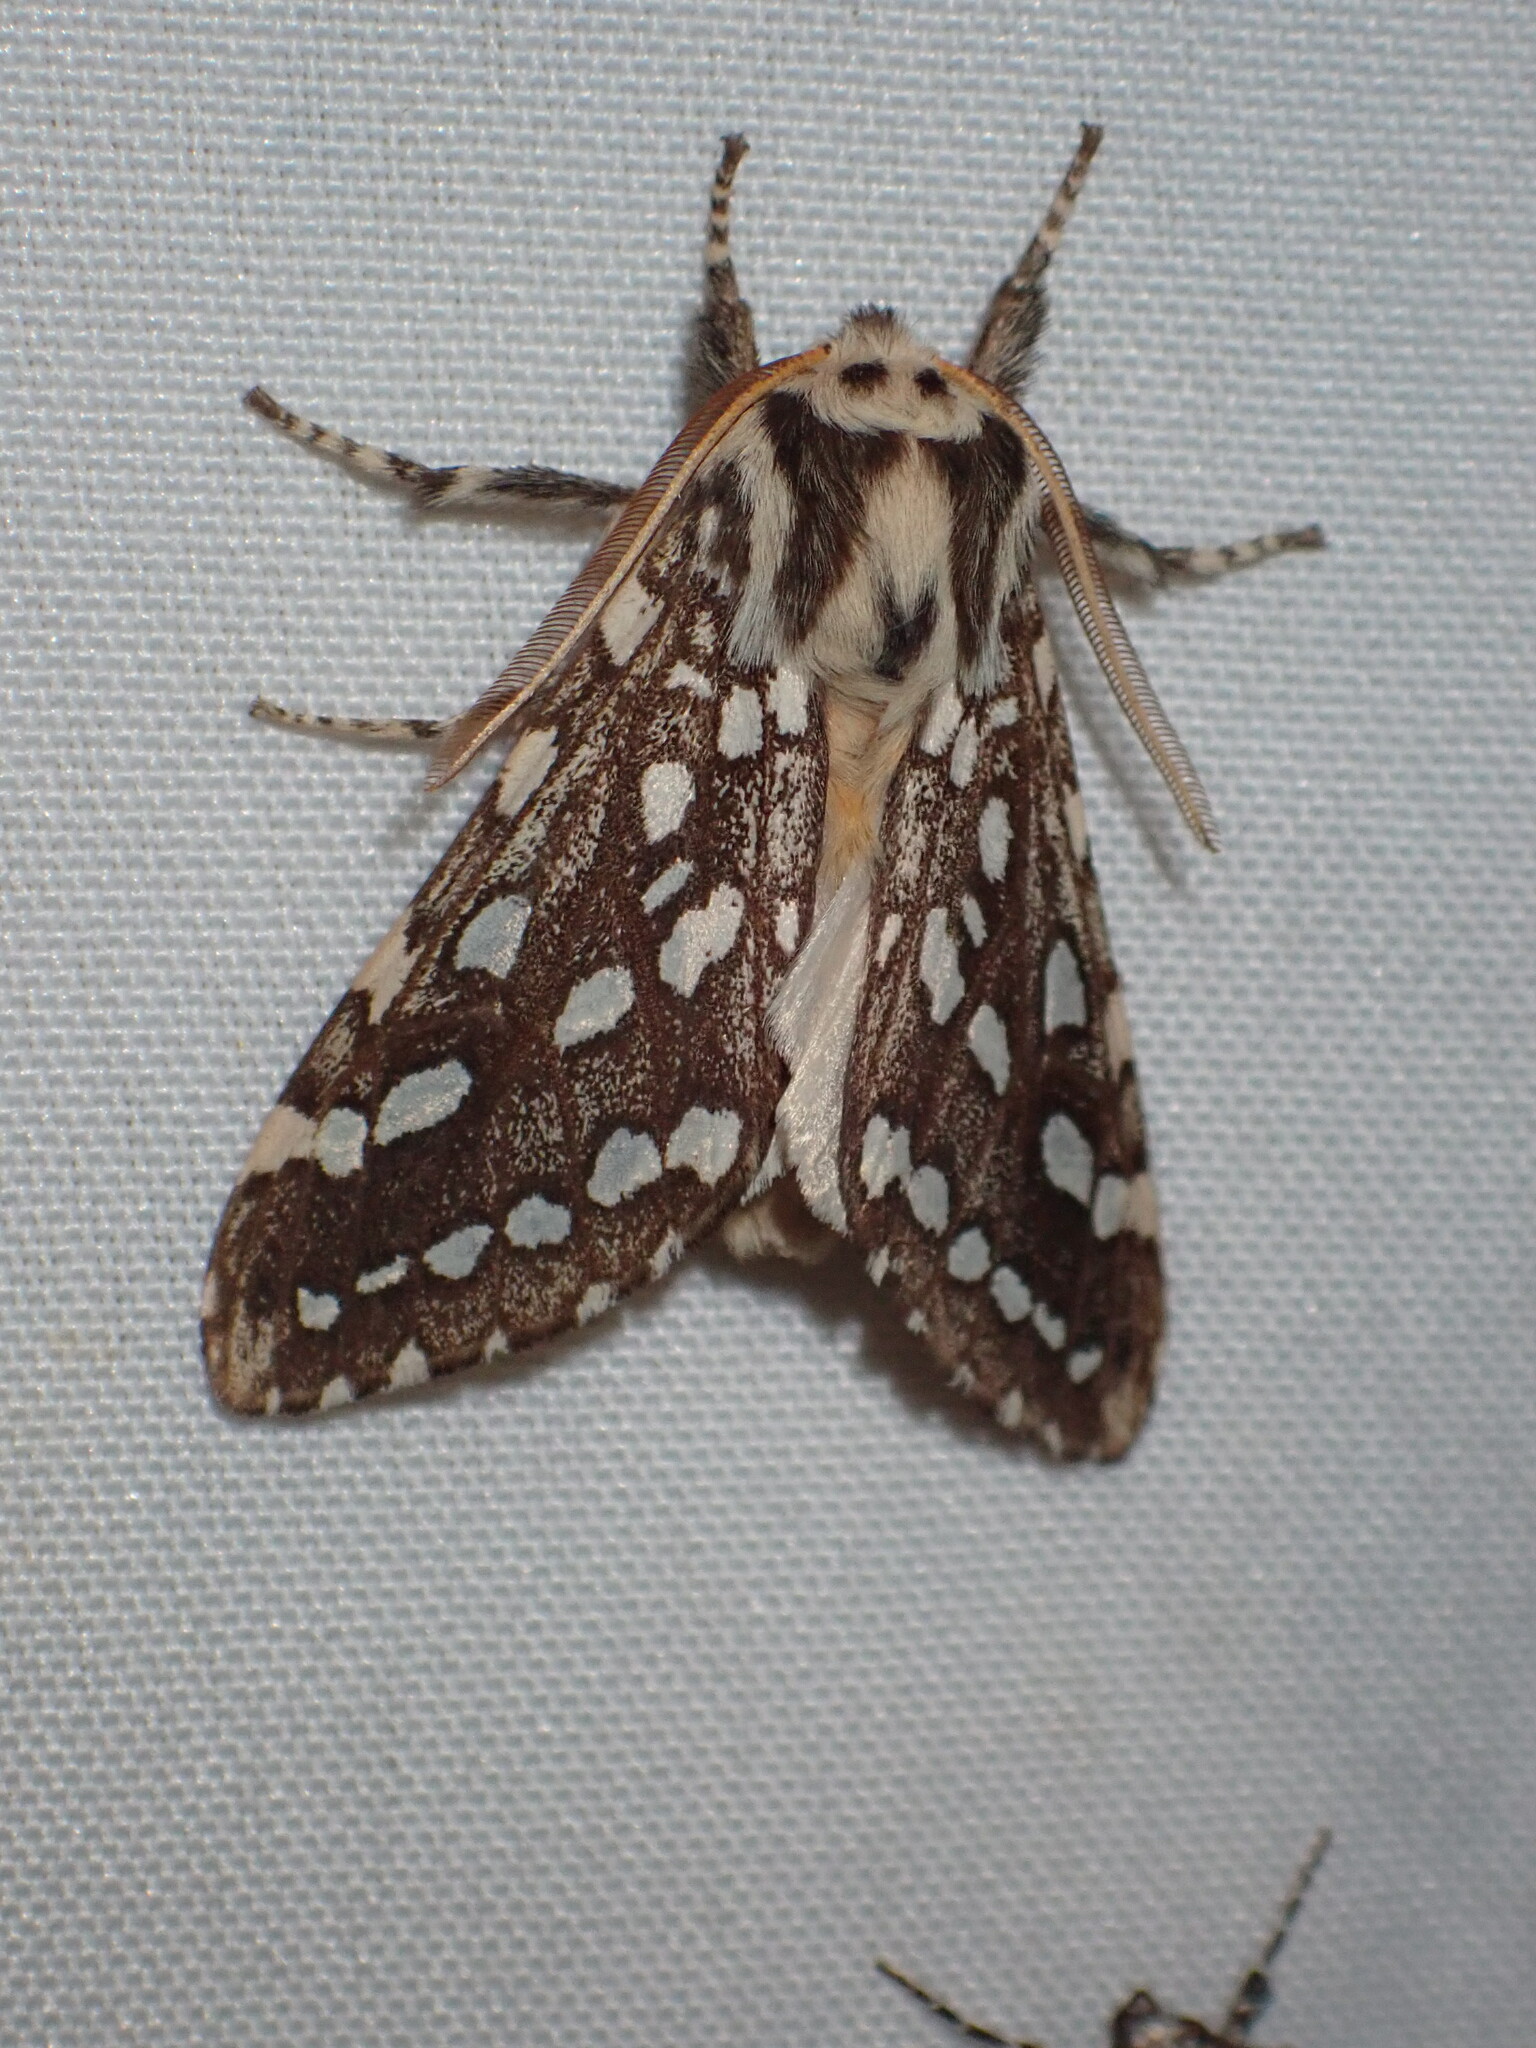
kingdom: Animalia
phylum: Arthropoda
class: Insecta
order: Lepidoptera
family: Erebidae
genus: Lophocampa
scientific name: Lophocampa argentata
